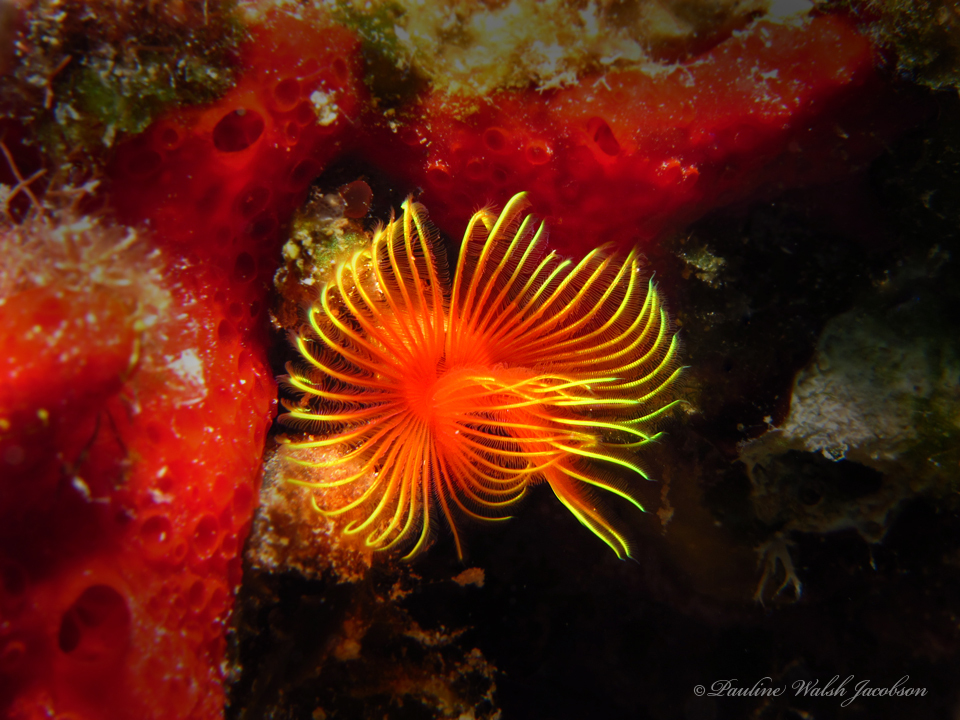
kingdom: Animalia
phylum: Annelida
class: Polychaeta
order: Sabellida
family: Serpulidae
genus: Pomatostegus
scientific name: Pomatostegus stellatus
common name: Star tubeworm
